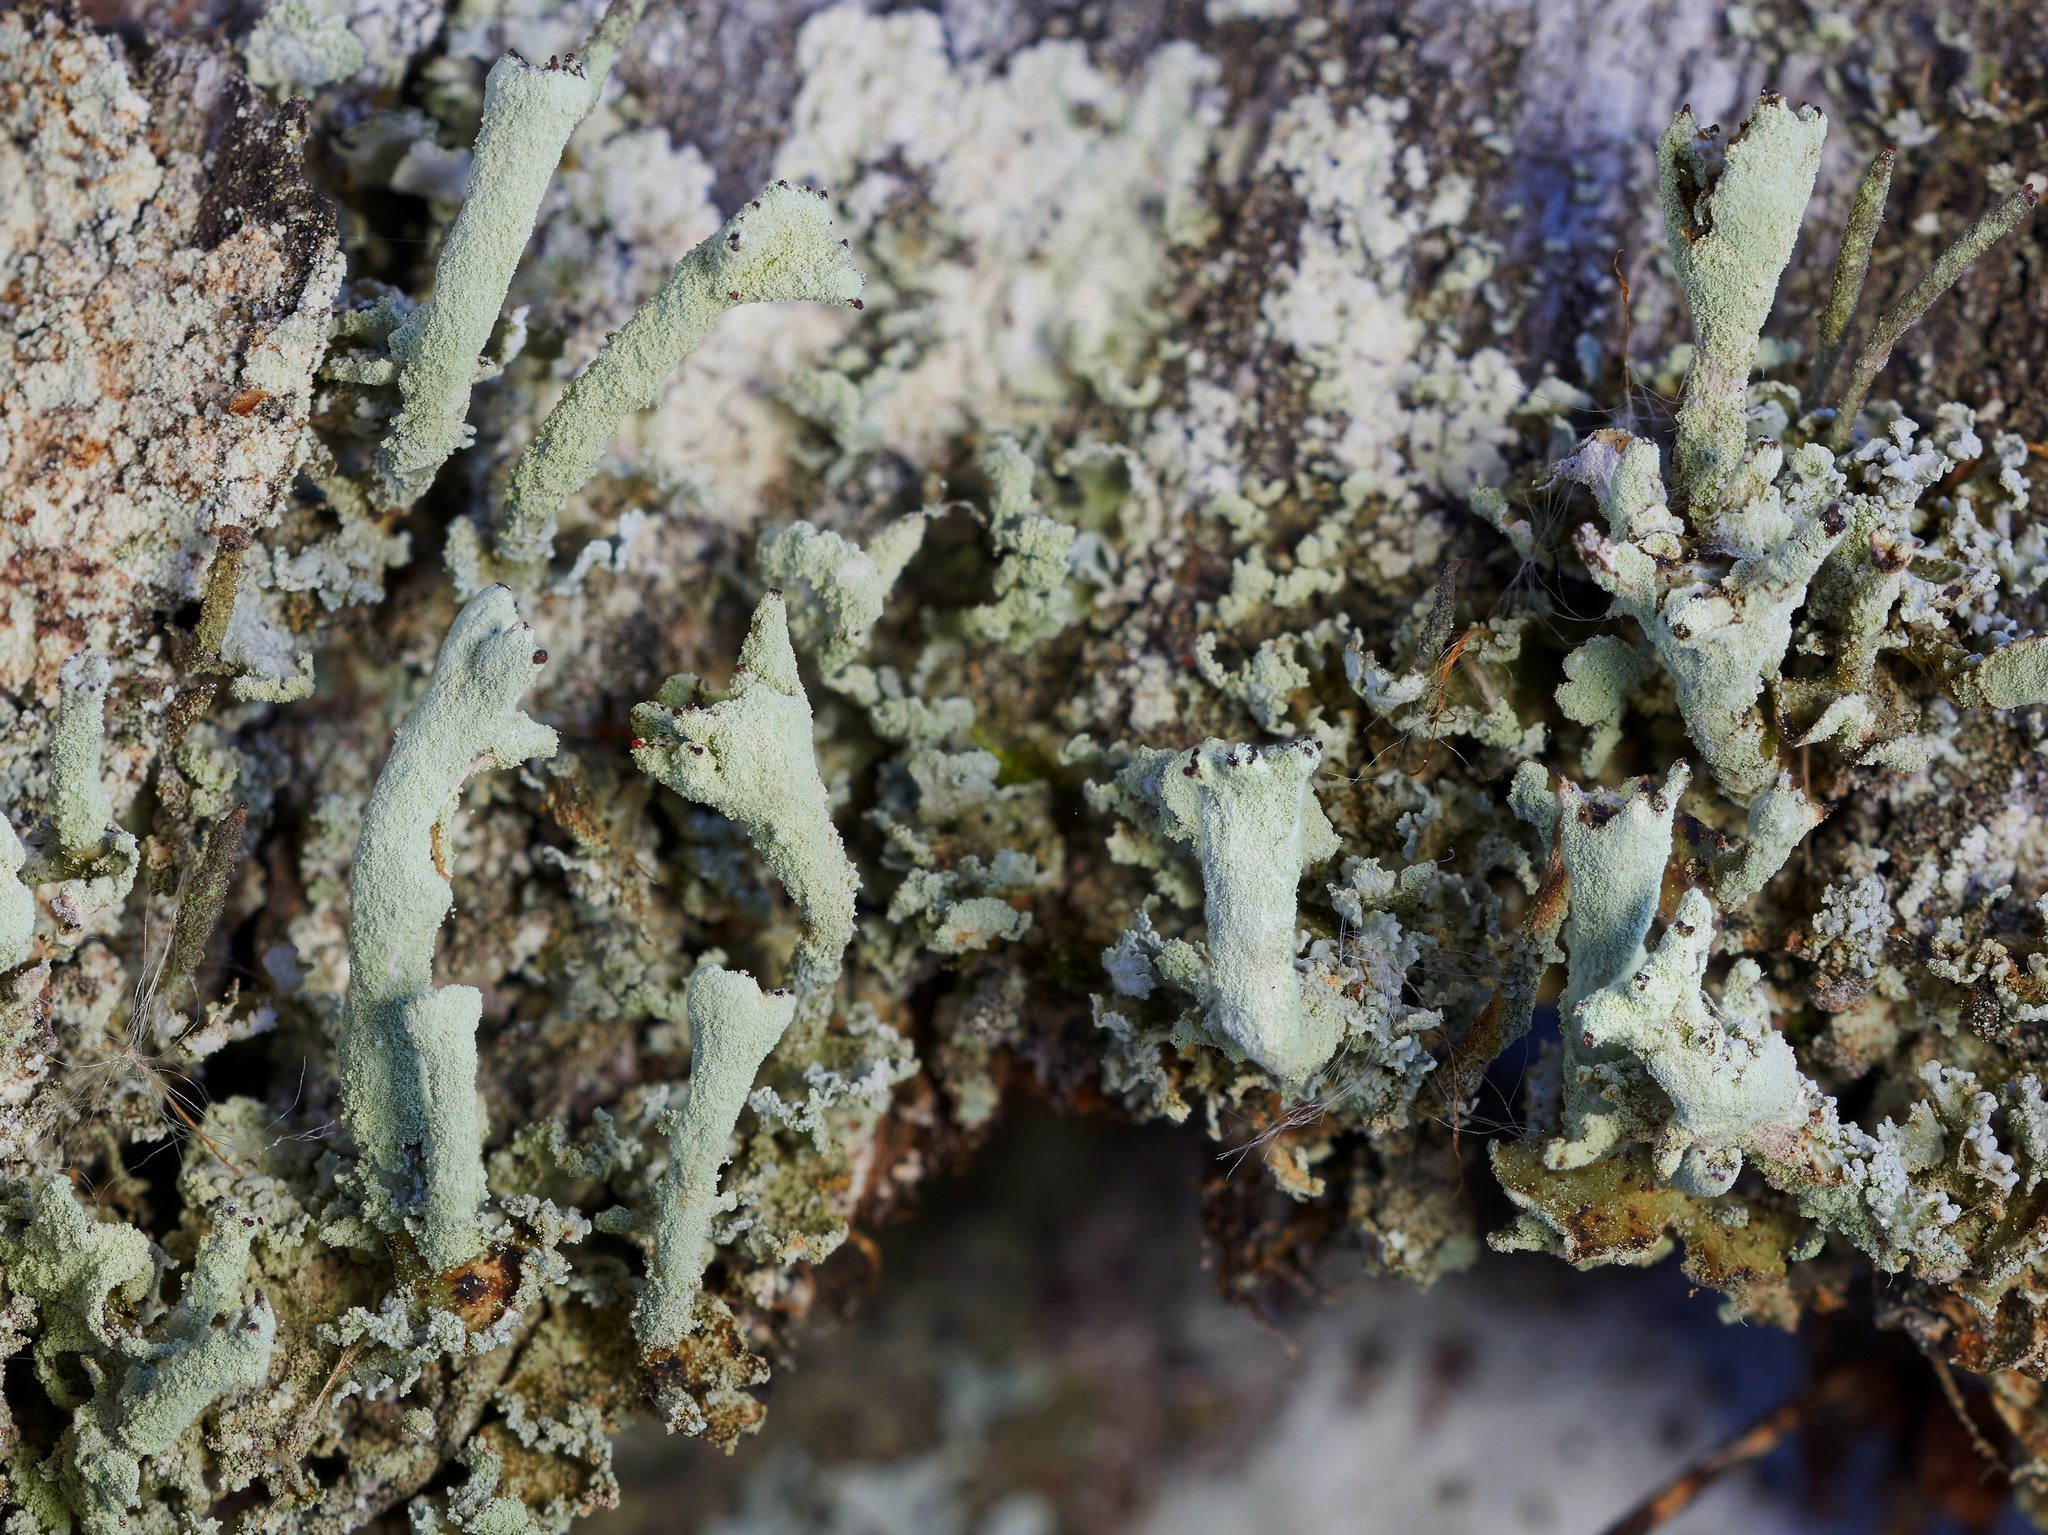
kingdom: Fungi
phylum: Ascomycota
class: Lecanoromycetes
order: Lecanorales
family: Cladoniaceae
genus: Cladonia
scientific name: Cladonia digitata
